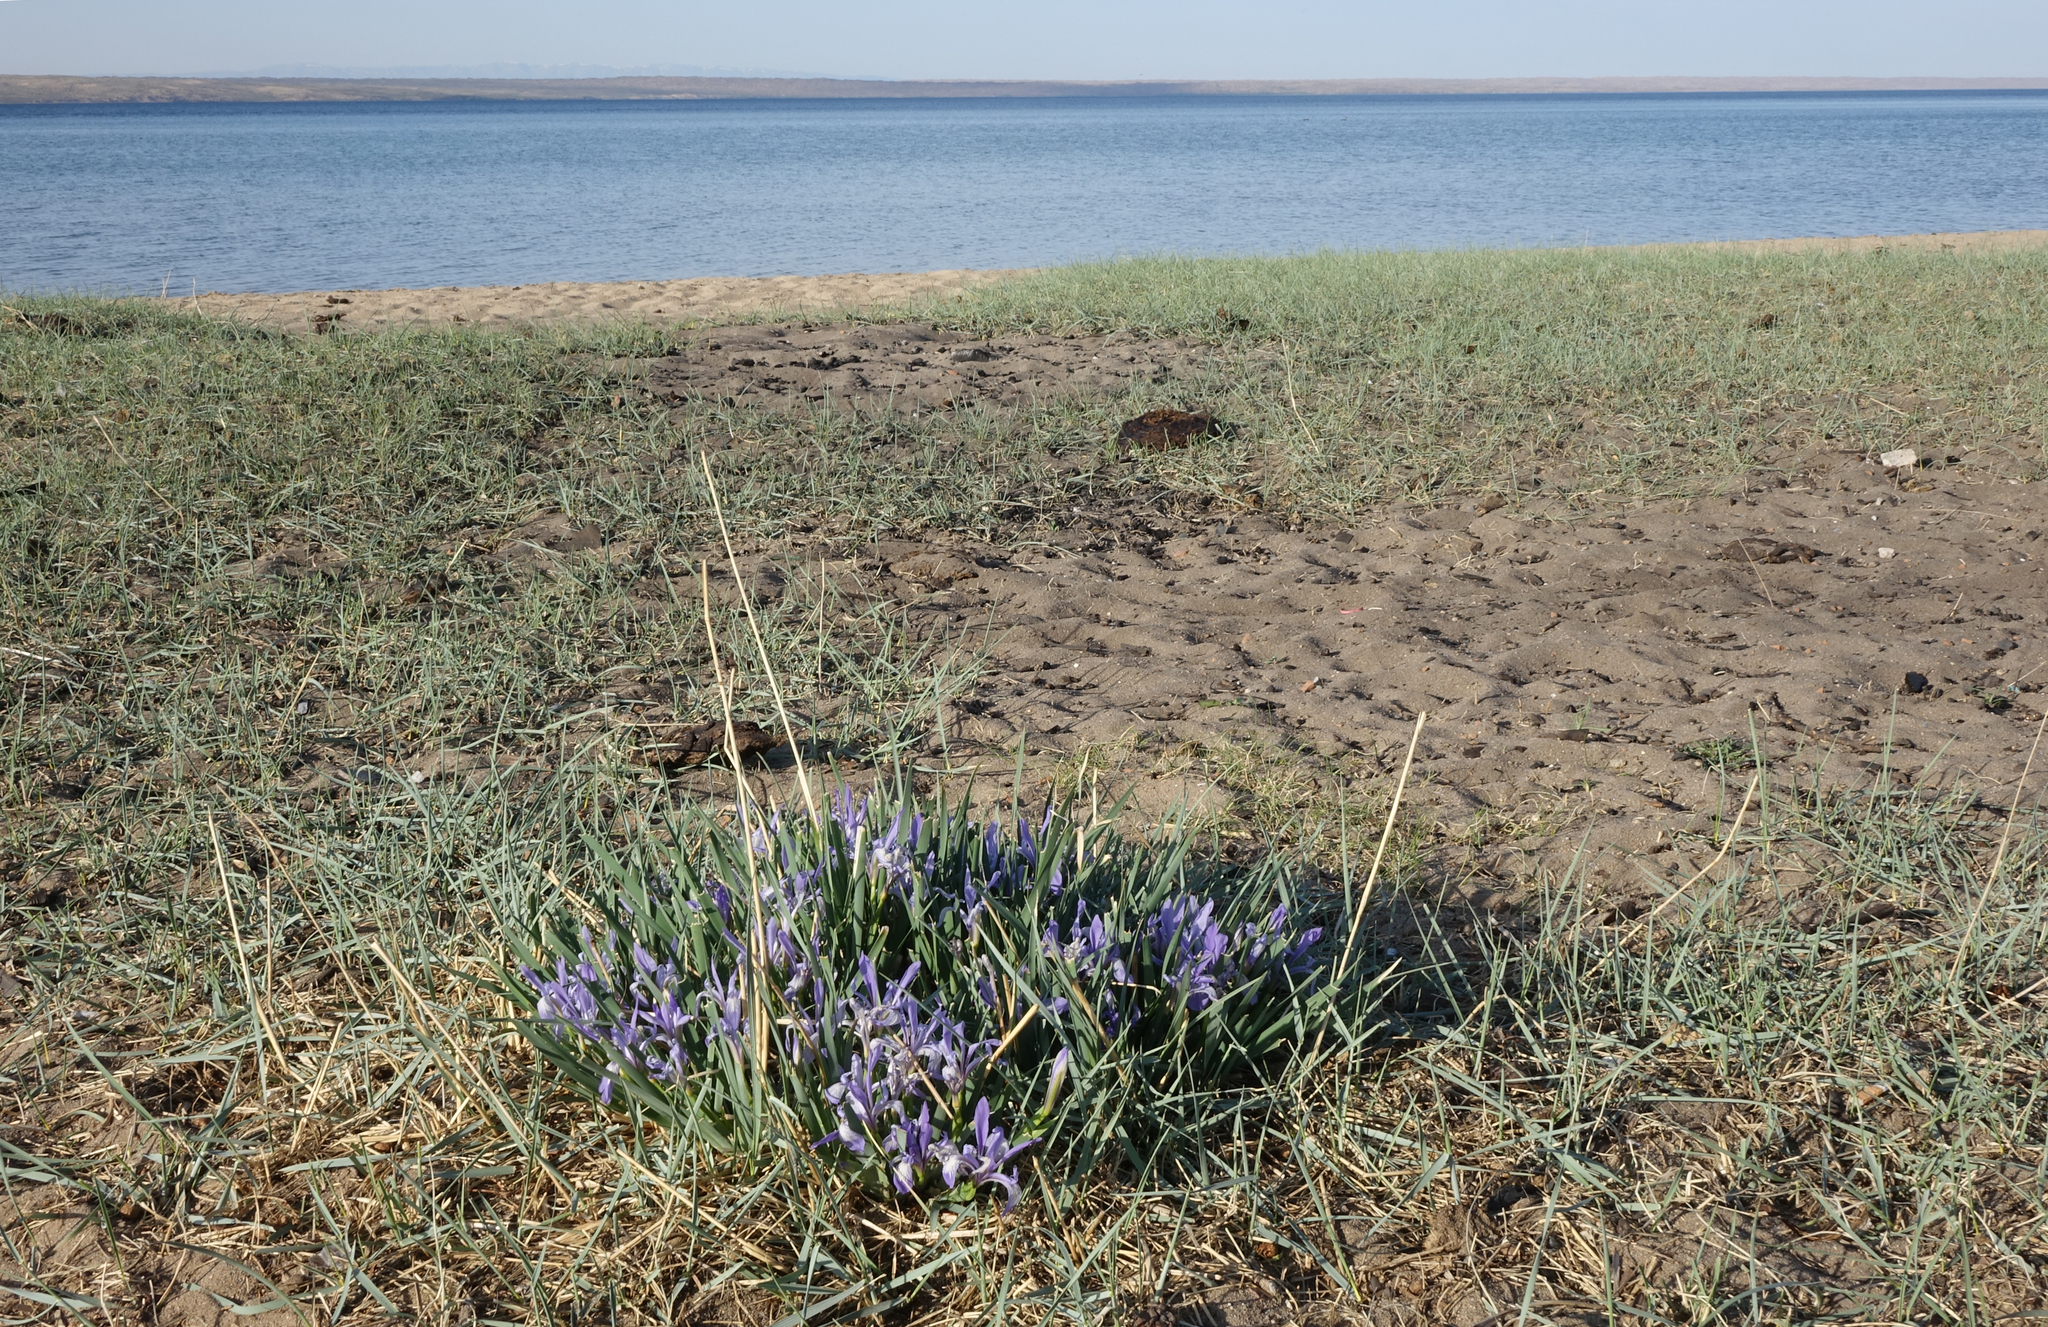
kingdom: Plantae
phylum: Tracheophyta
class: Liliopsida
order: Asparagales
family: Iridaceae
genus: Iris
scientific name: Iris lactea
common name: White-flower chinese iris
